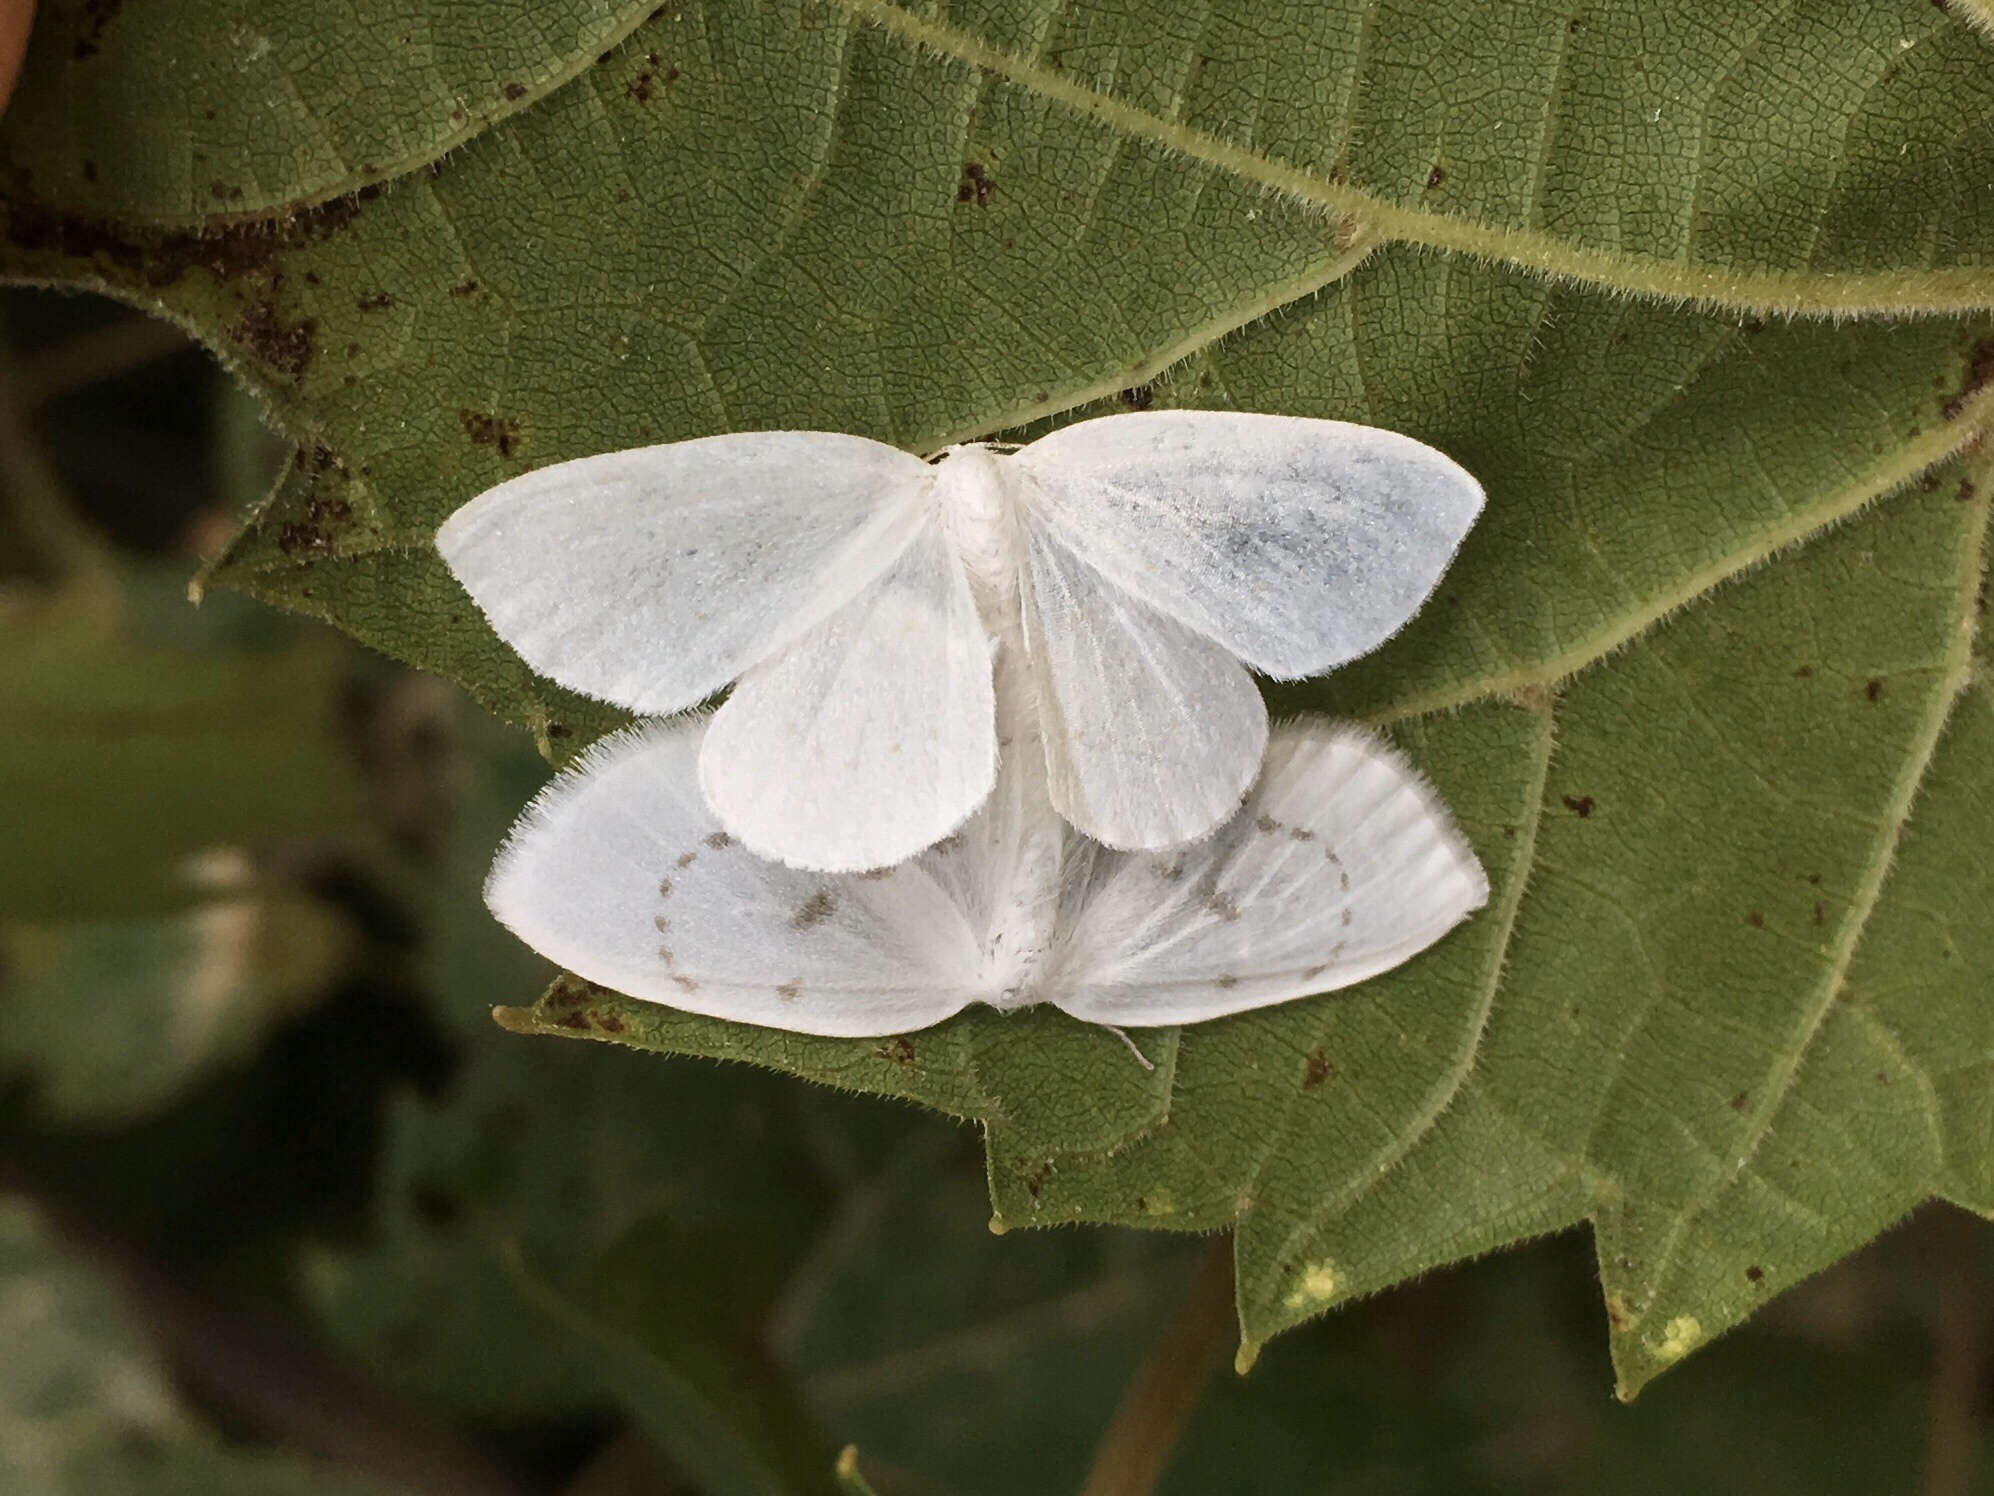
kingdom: Animalia
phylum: Arthropoda
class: Insecta
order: Lepidoptera
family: Drepanidae
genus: Eudeilinia
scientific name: Eudeilinia herminiata
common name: Northern eudeilinea moth
